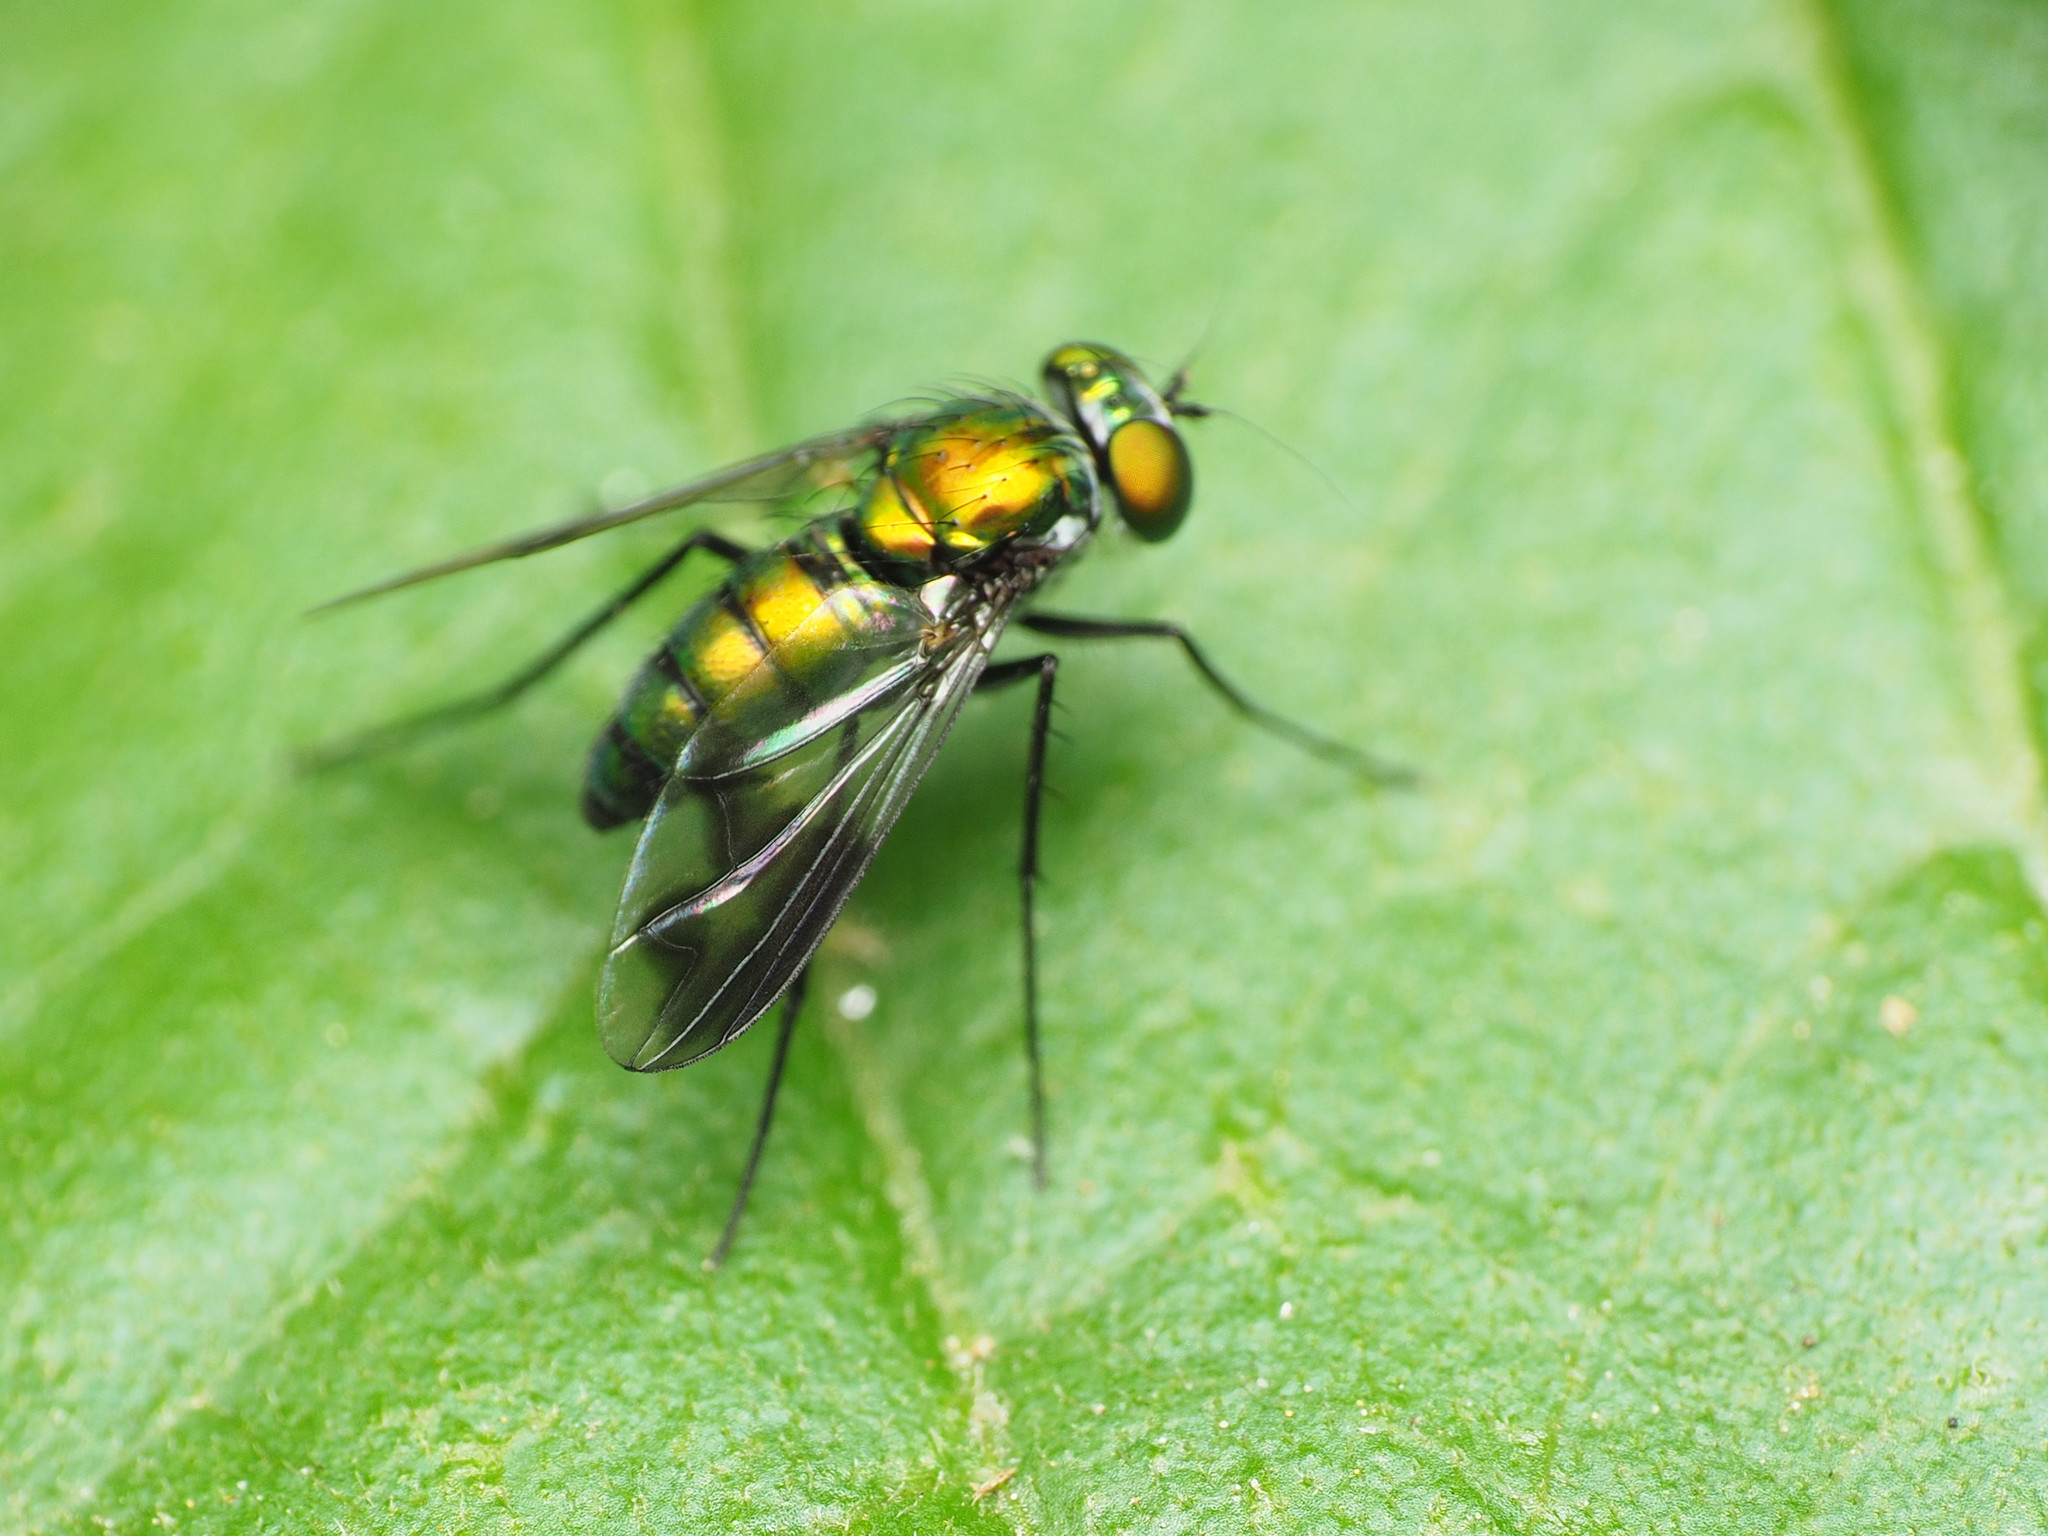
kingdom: Animalia
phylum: Arthropoda
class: Insecta
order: Diptera
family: Dolichopodidae
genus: Condylostylus
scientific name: Condylostylus patibulatus
